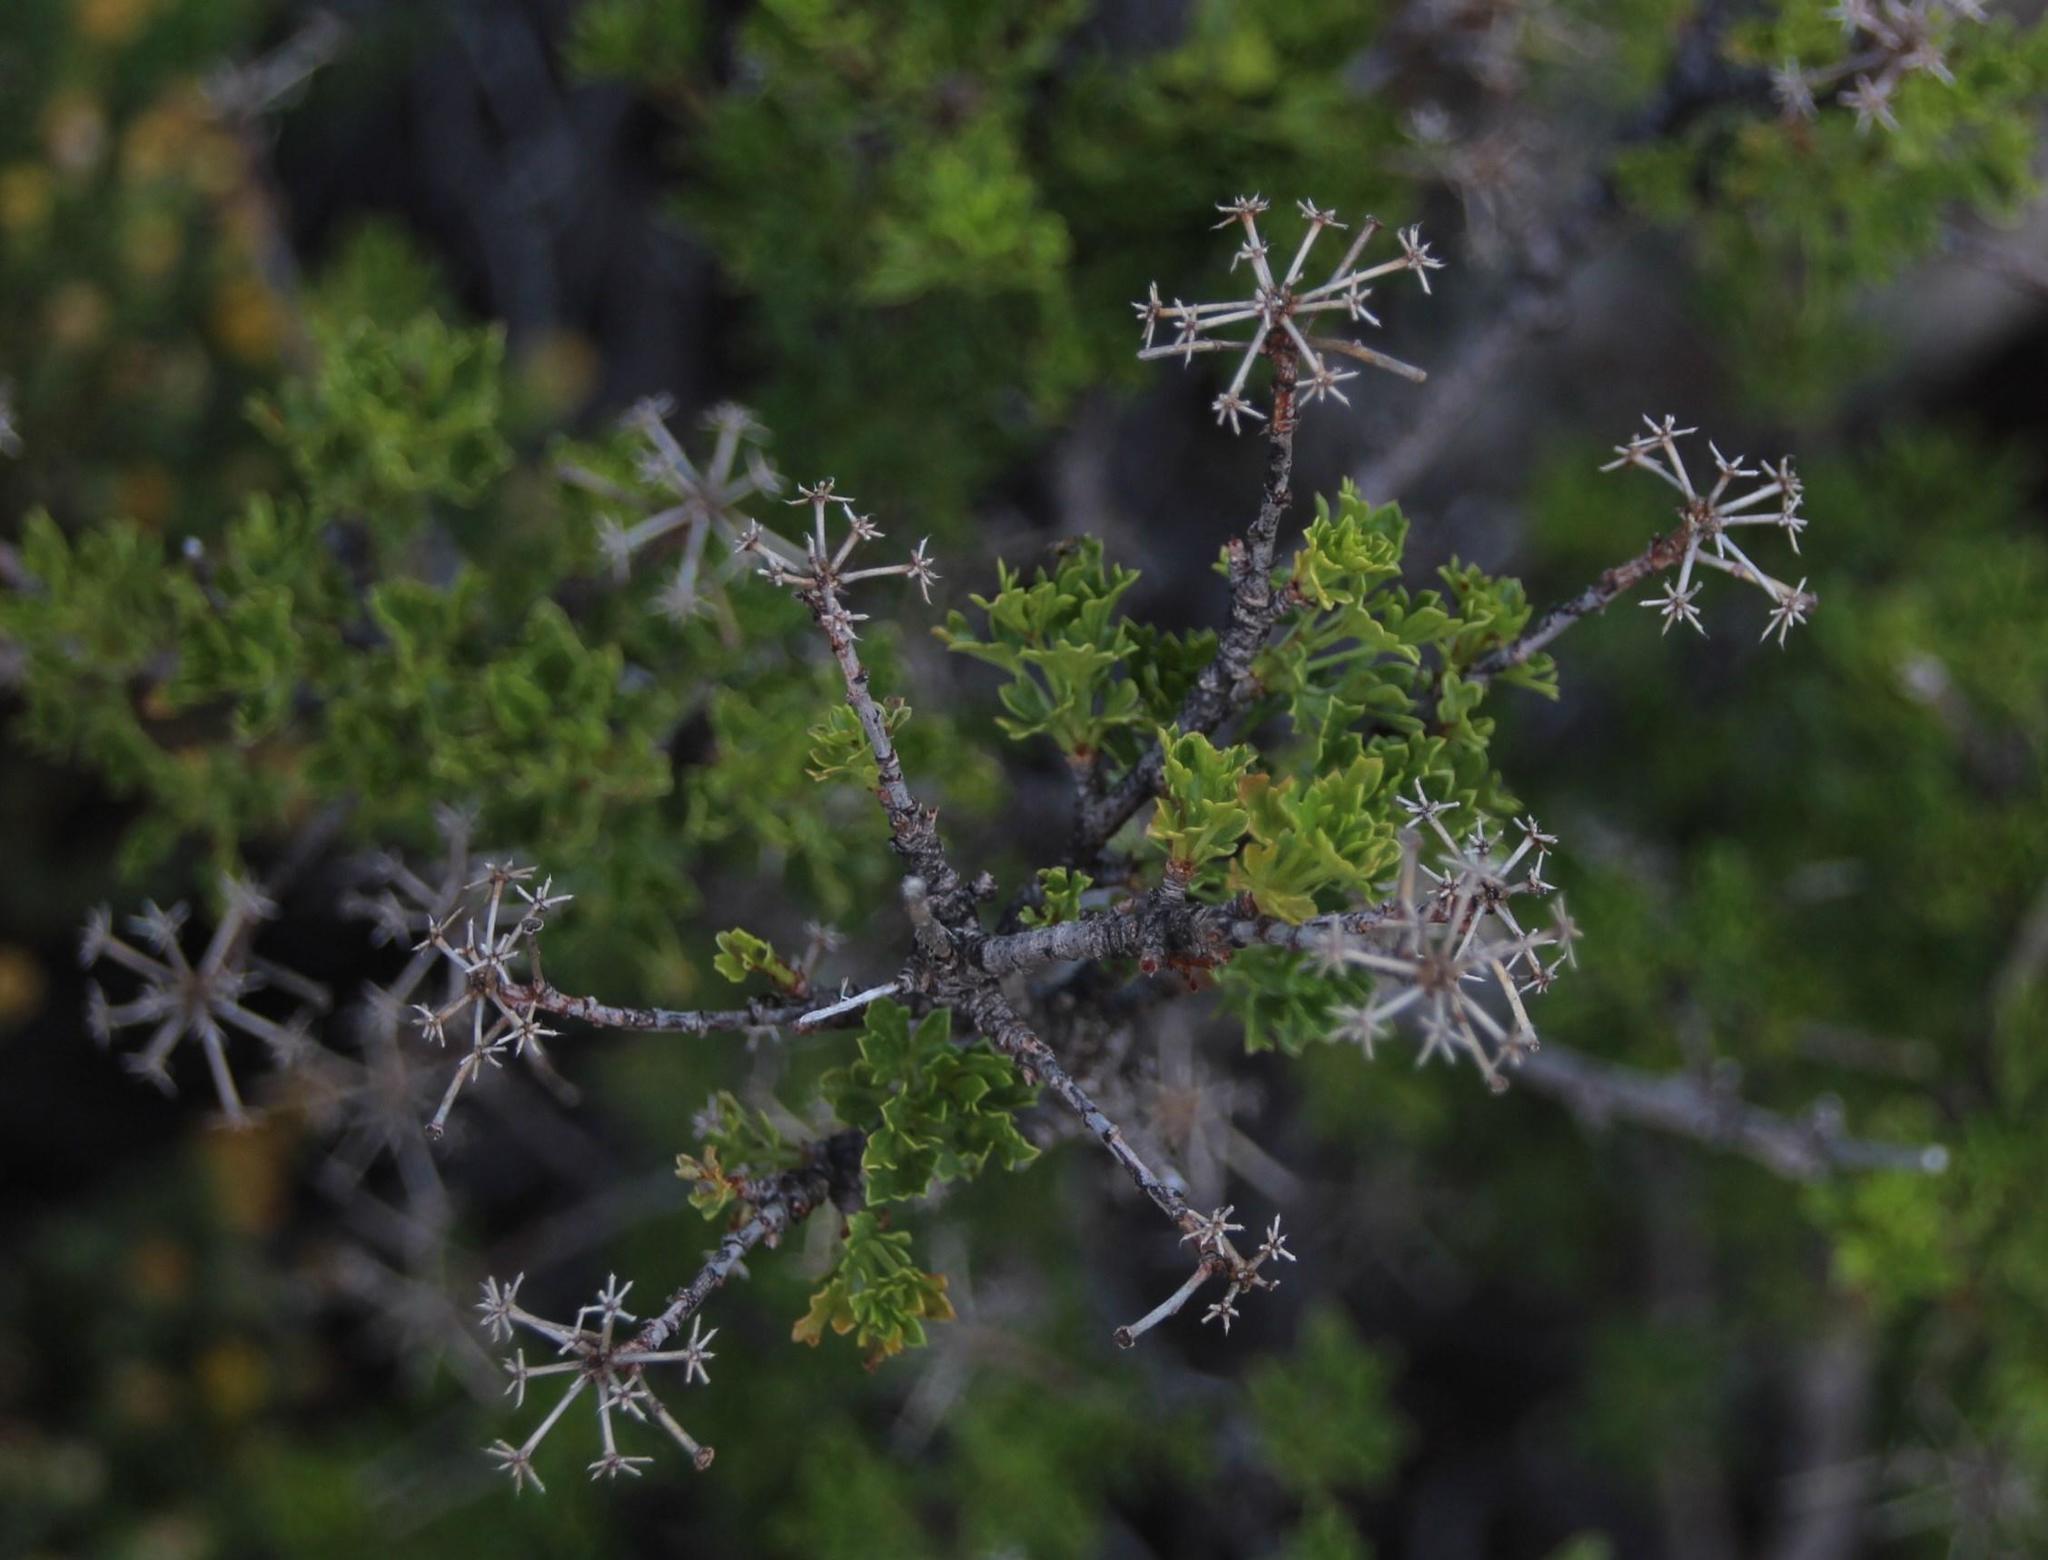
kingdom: Plantae
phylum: Tracheophyta
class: Magnoliopsida
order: Apiales
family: Apiaceae
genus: Polemannia
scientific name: Polemannia grossulariifolia
